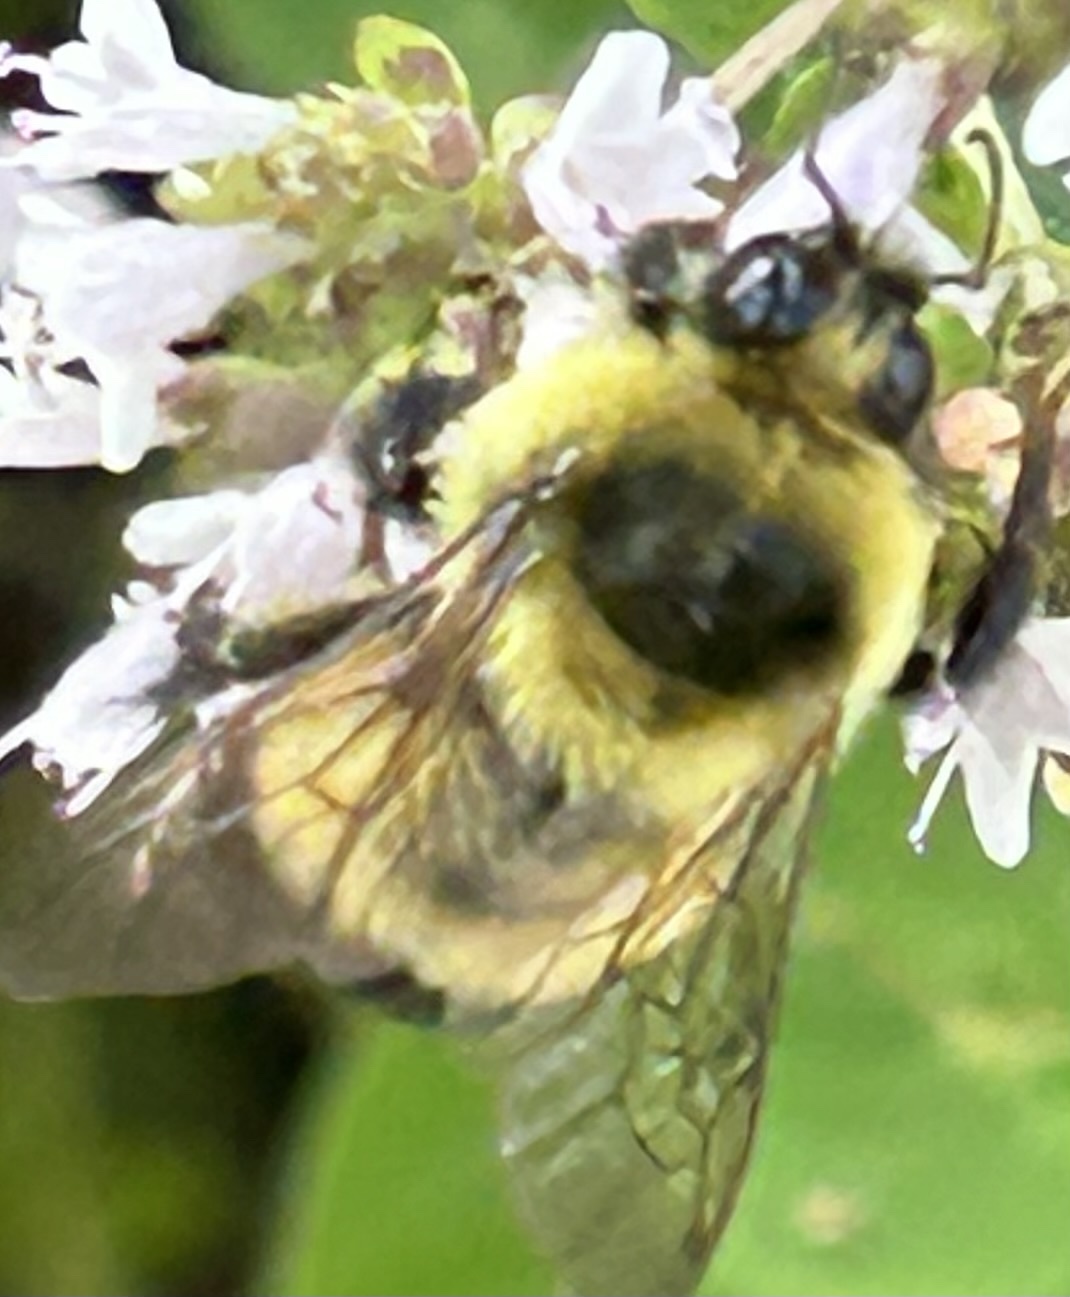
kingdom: Animalia
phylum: Arthropoda
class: Insecta
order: Hymenoptera
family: Apidae
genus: Bombus
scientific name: Bombus rufocinctus
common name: Red-belted bumble bee
